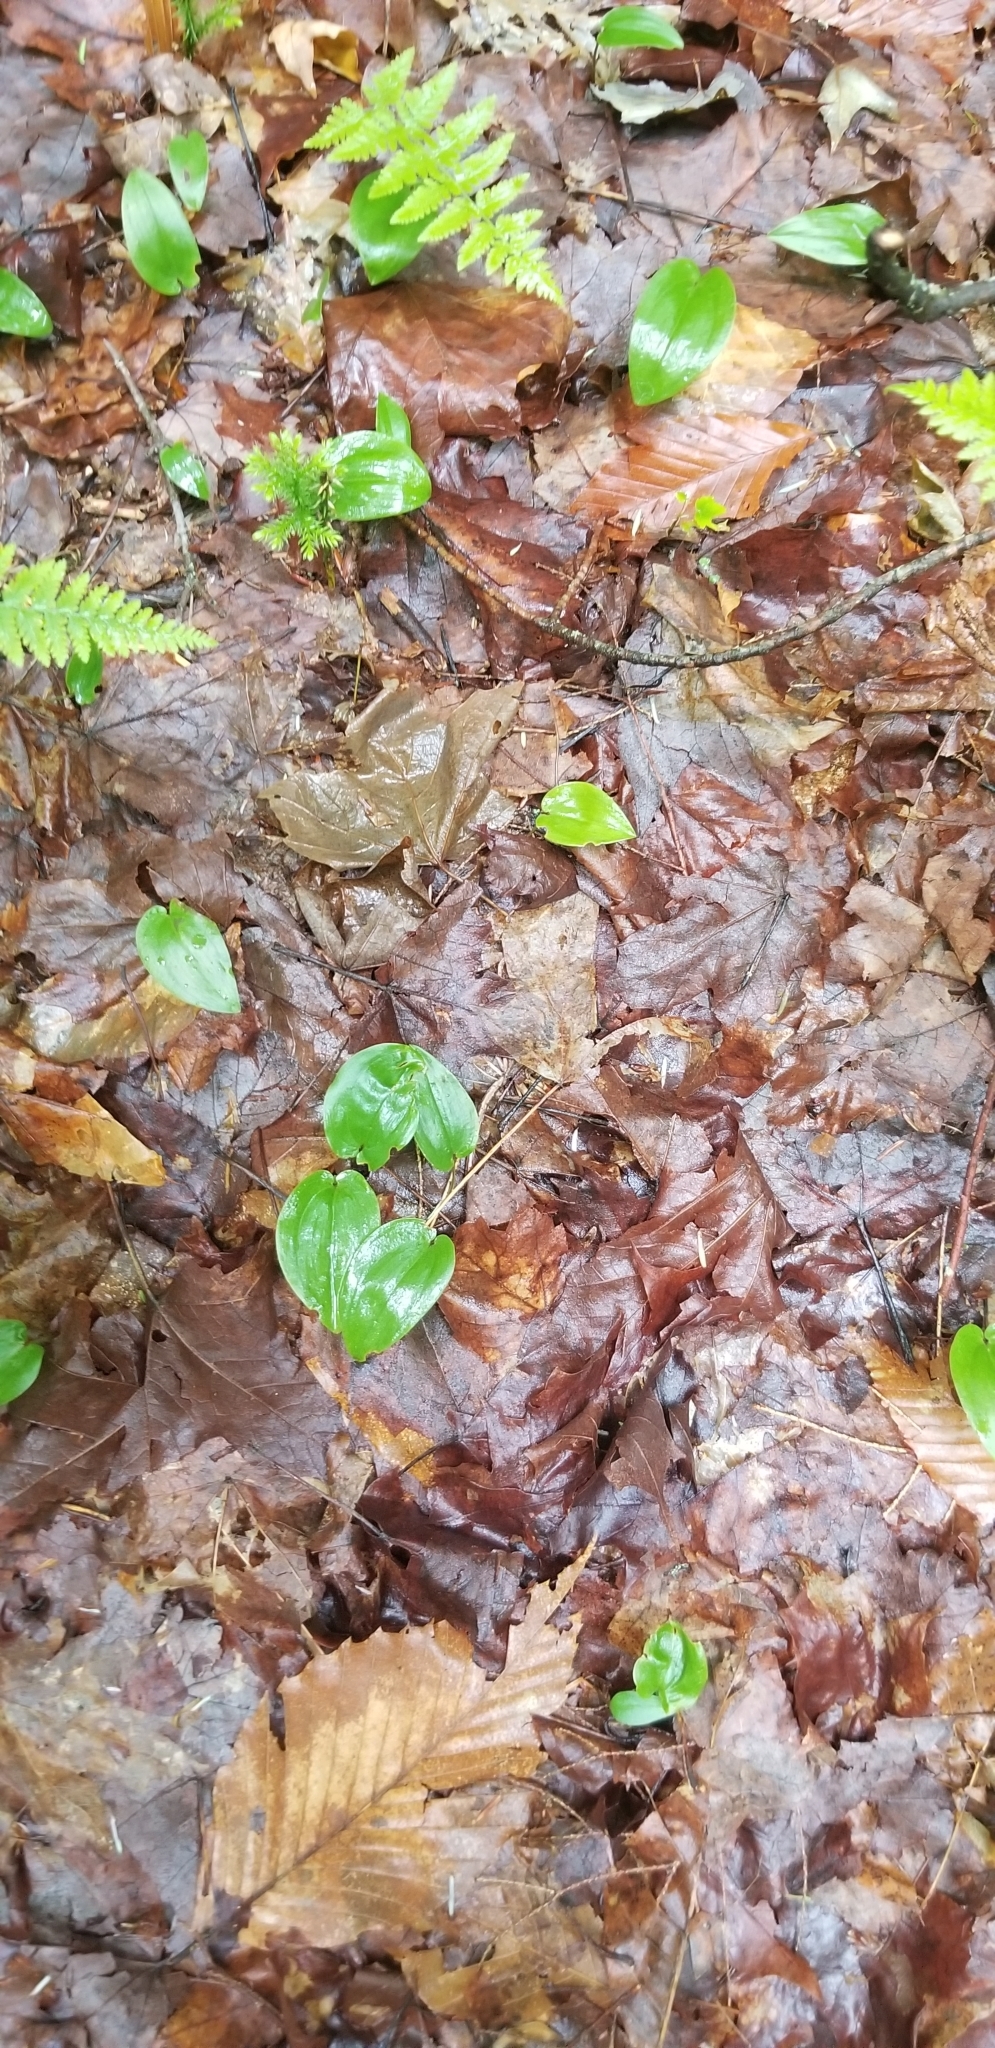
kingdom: Plantae
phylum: Tracheophyta
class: Liliopsida
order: Asparagales
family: Asparagaceae
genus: Maianthemum
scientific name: Maianthemum canadense
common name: False lily-of-the-valley
